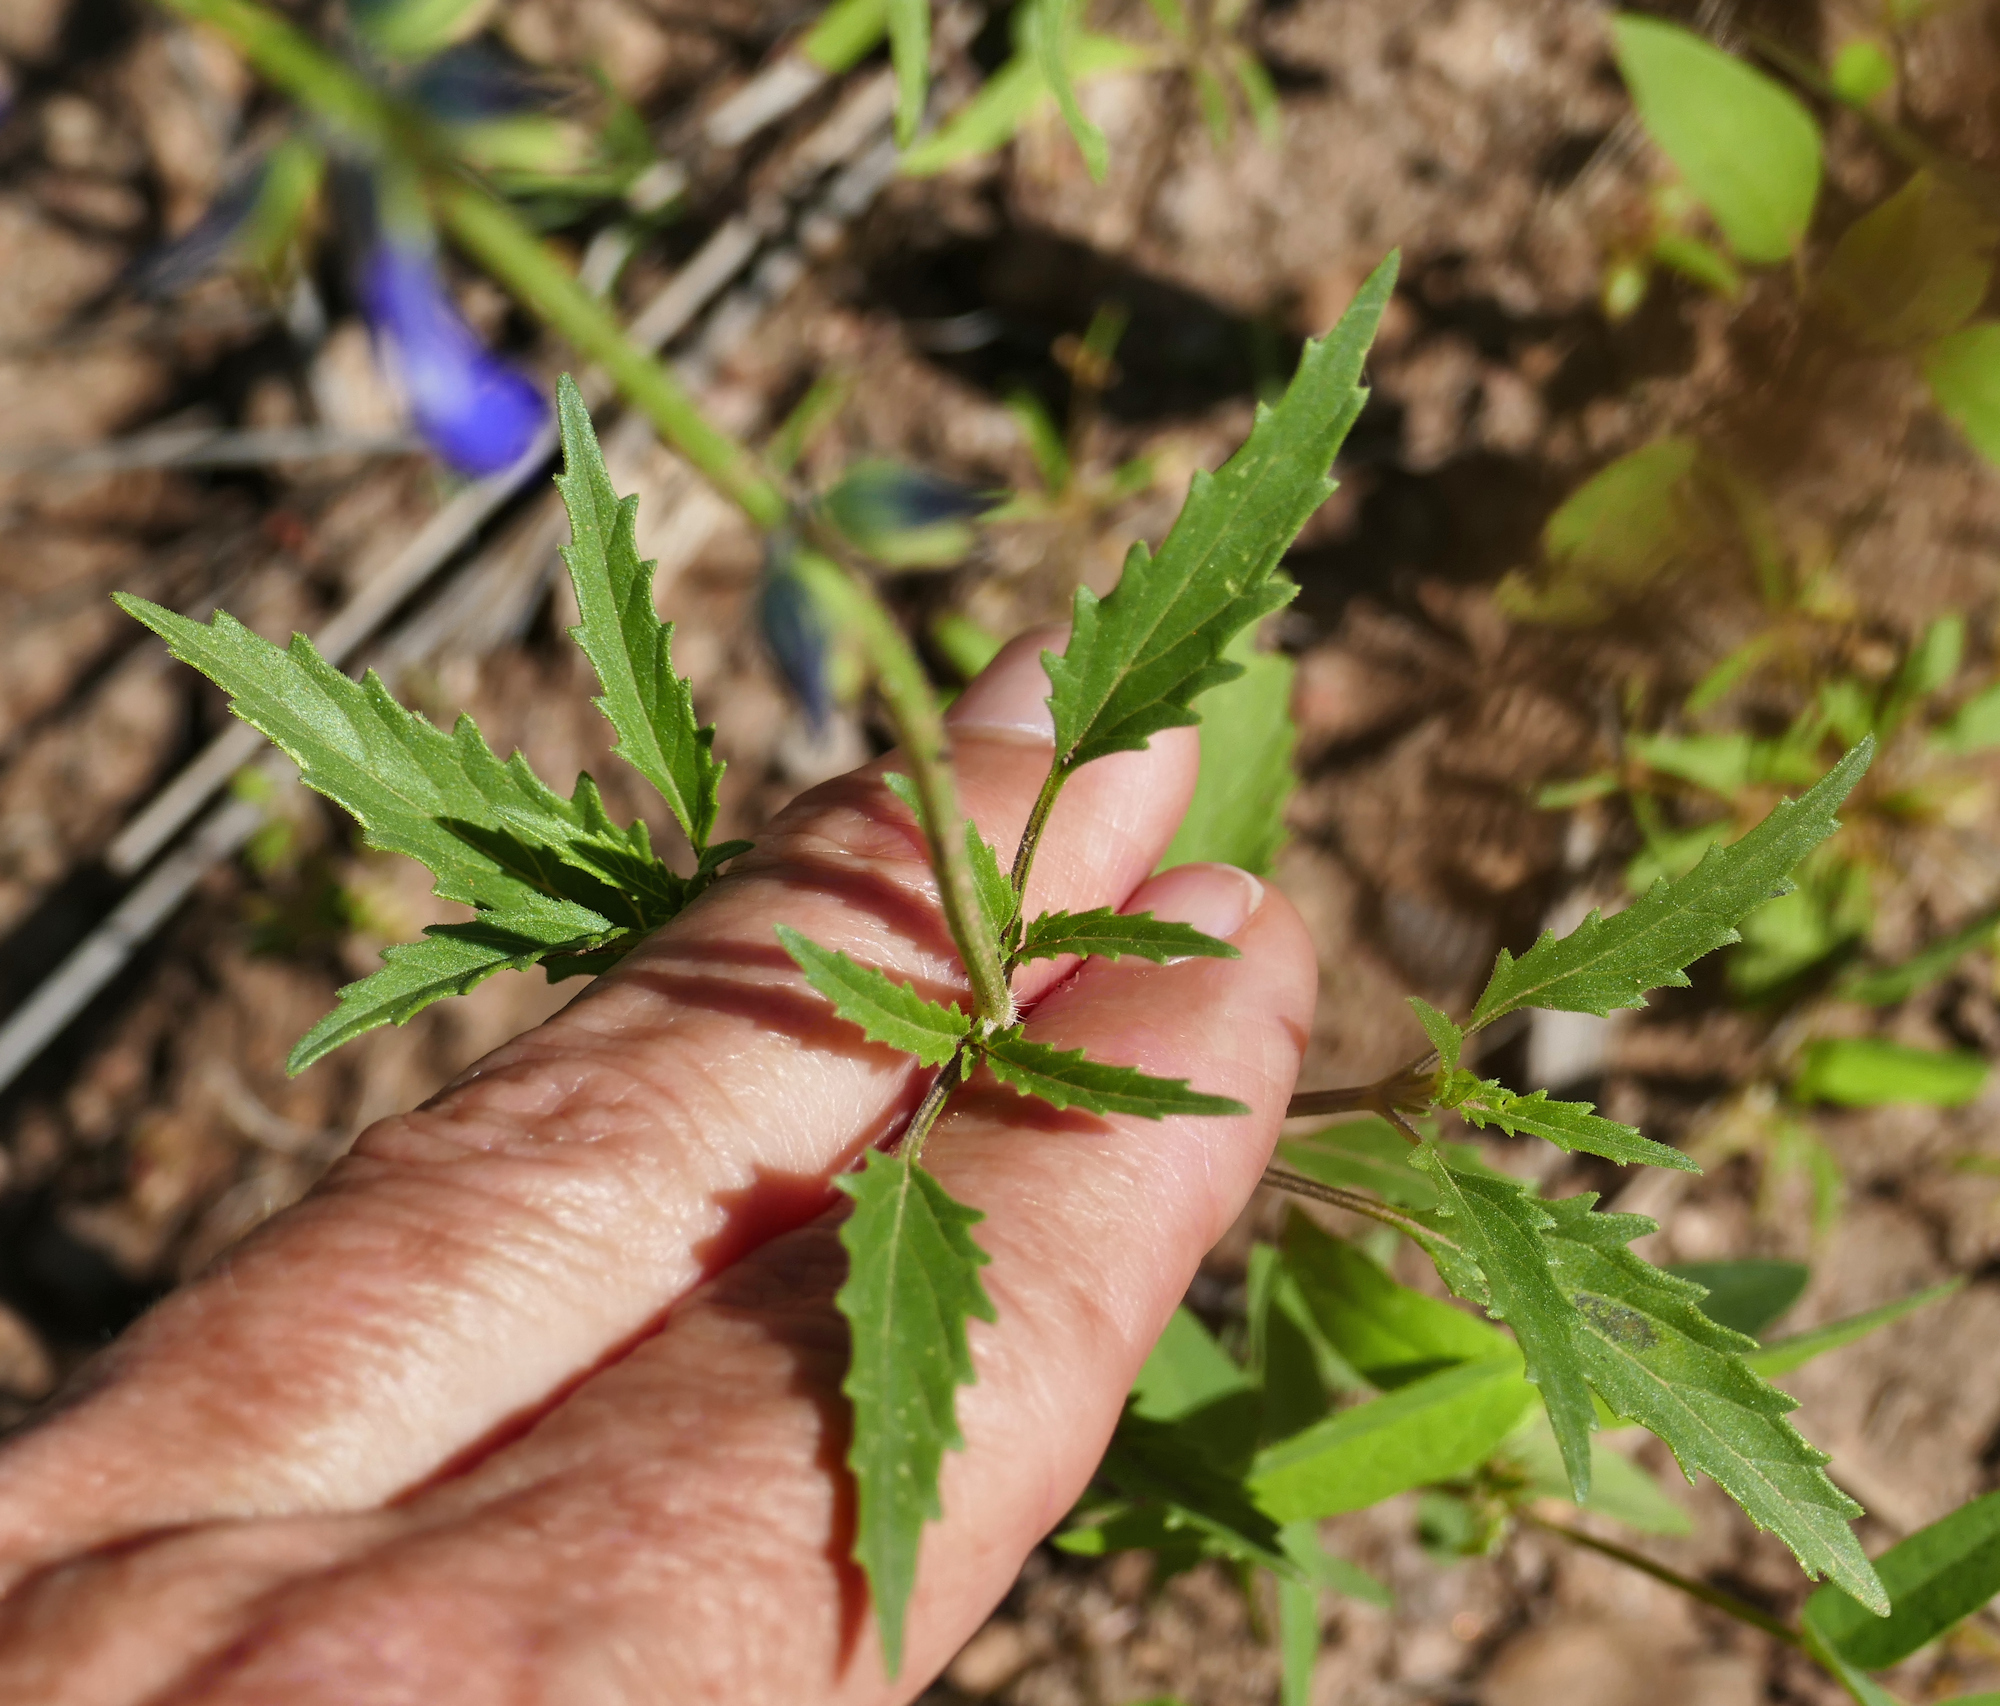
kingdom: Plantae
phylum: Tracheophyta
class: Magnoliopsida
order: Lamiales
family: Lamiaceae
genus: Salvia
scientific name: Salvia subincisa
